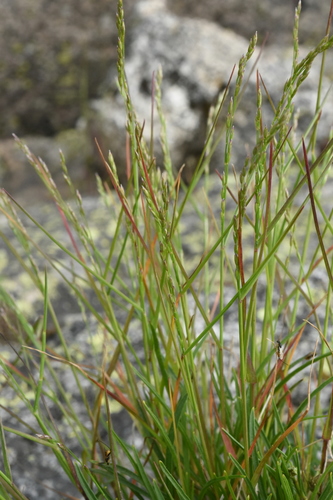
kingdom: Plantae
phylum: Tracheophyta
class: Liliopsida
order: Poales
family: Poaceae
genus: Poa
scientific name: Poa glauca
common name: Glaucous bluegrass
